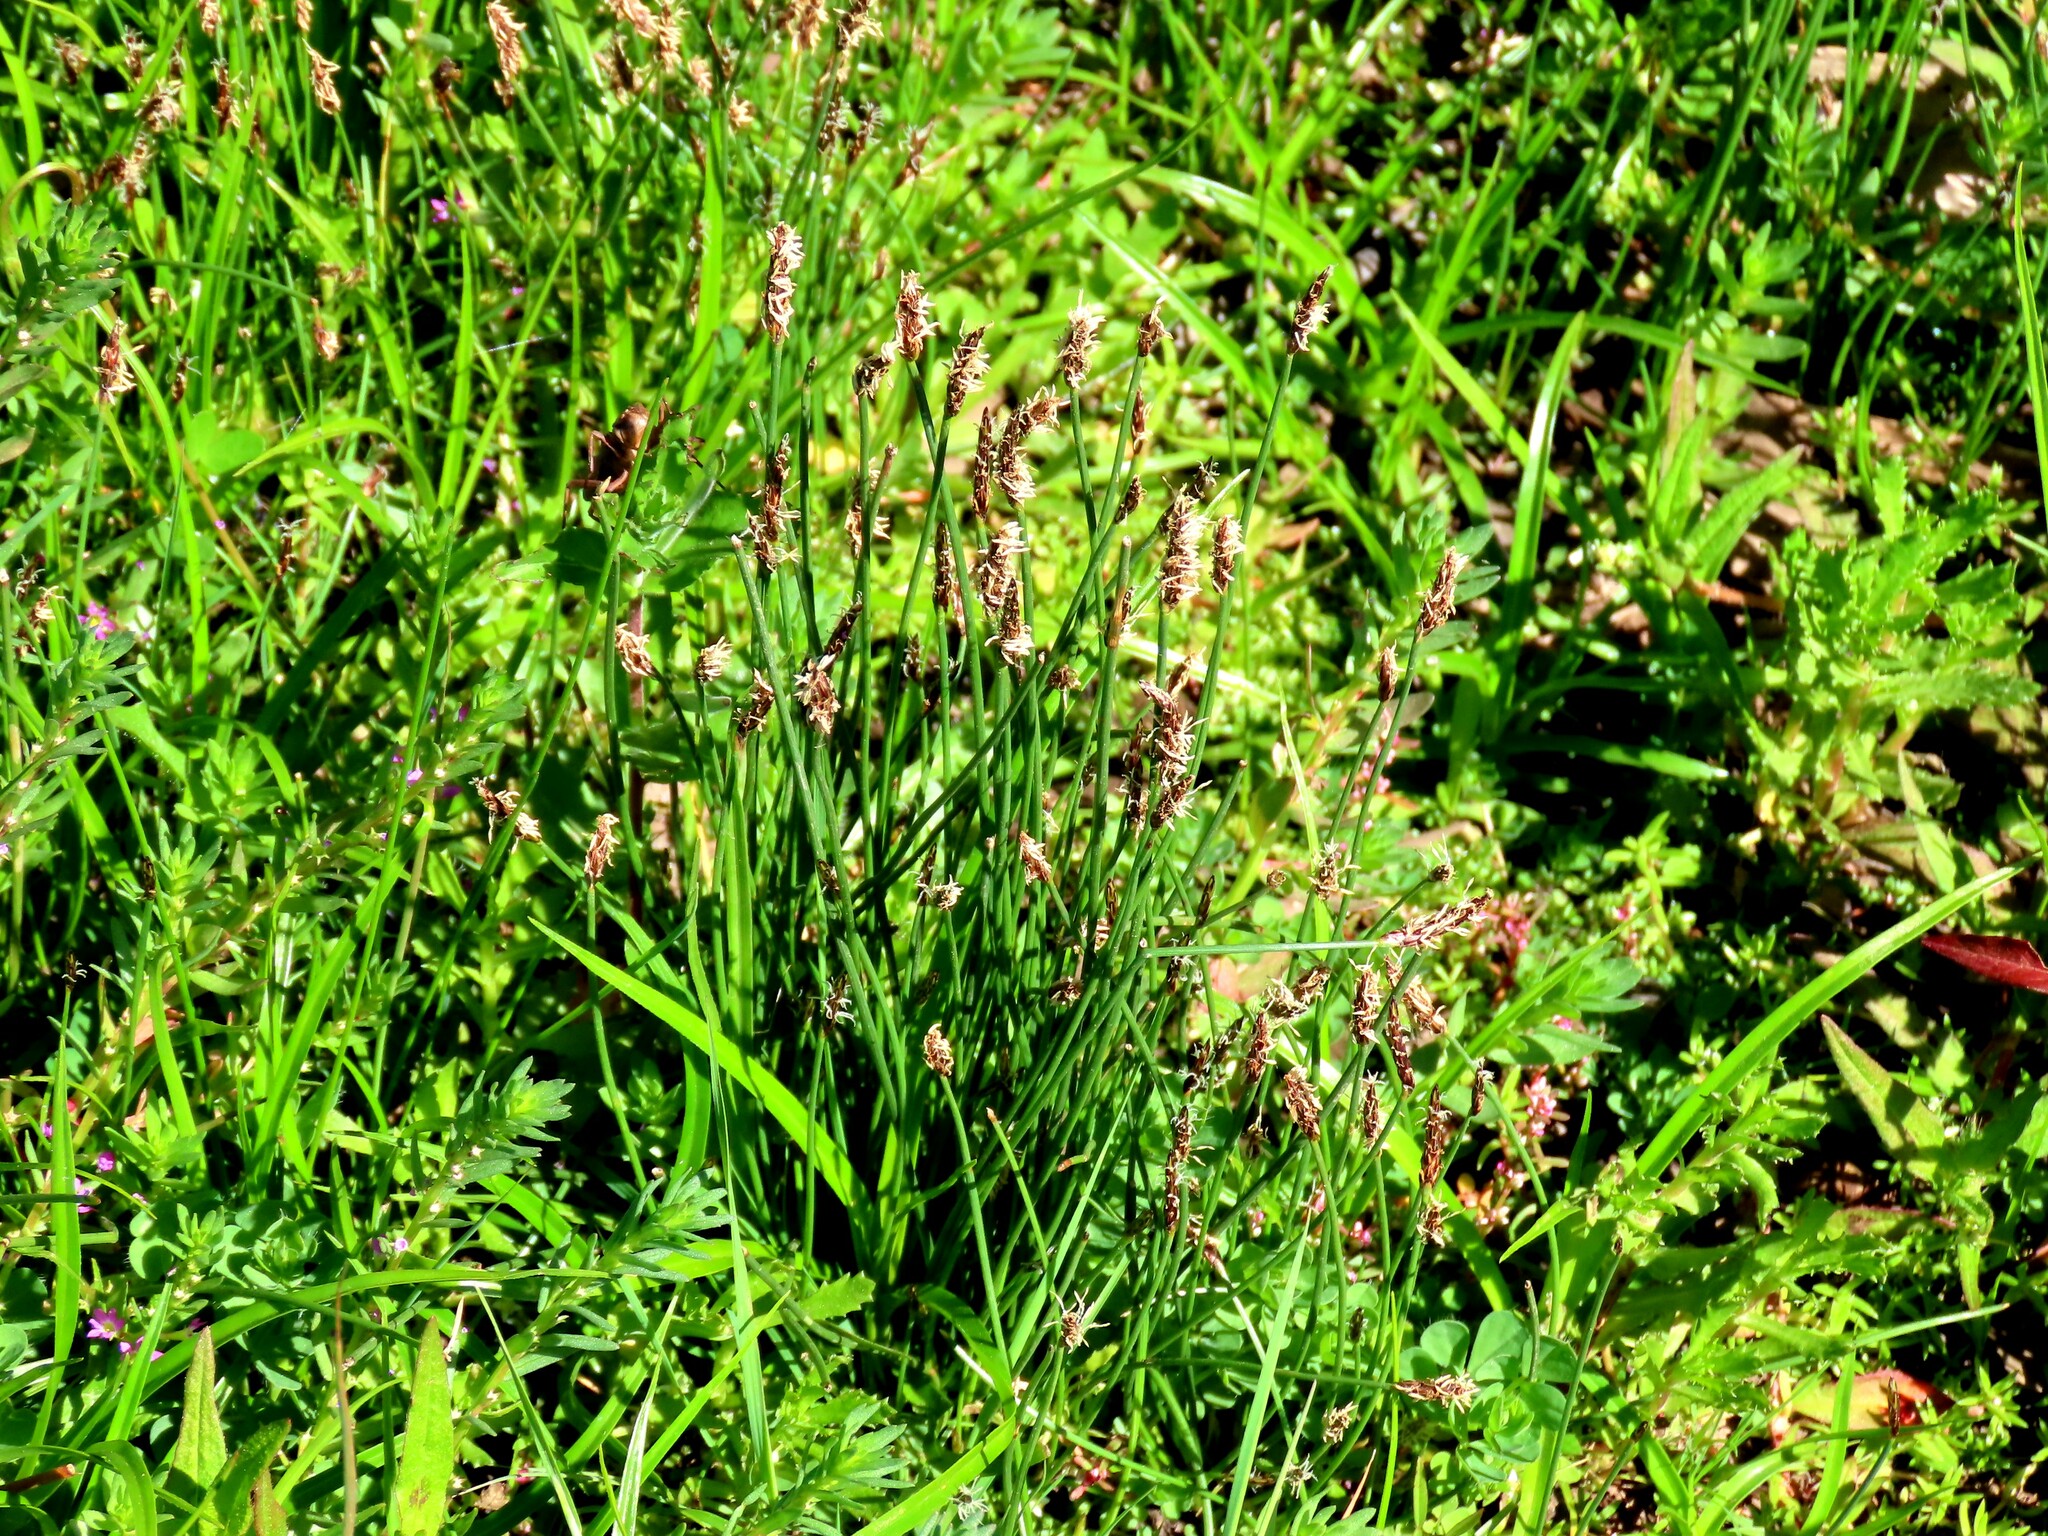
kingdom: Plantae
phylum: Tracheophyta
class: Liliopsida
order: Poales
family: Cyperaceae
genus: Eleocharis
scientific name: Eleocharis acuta
